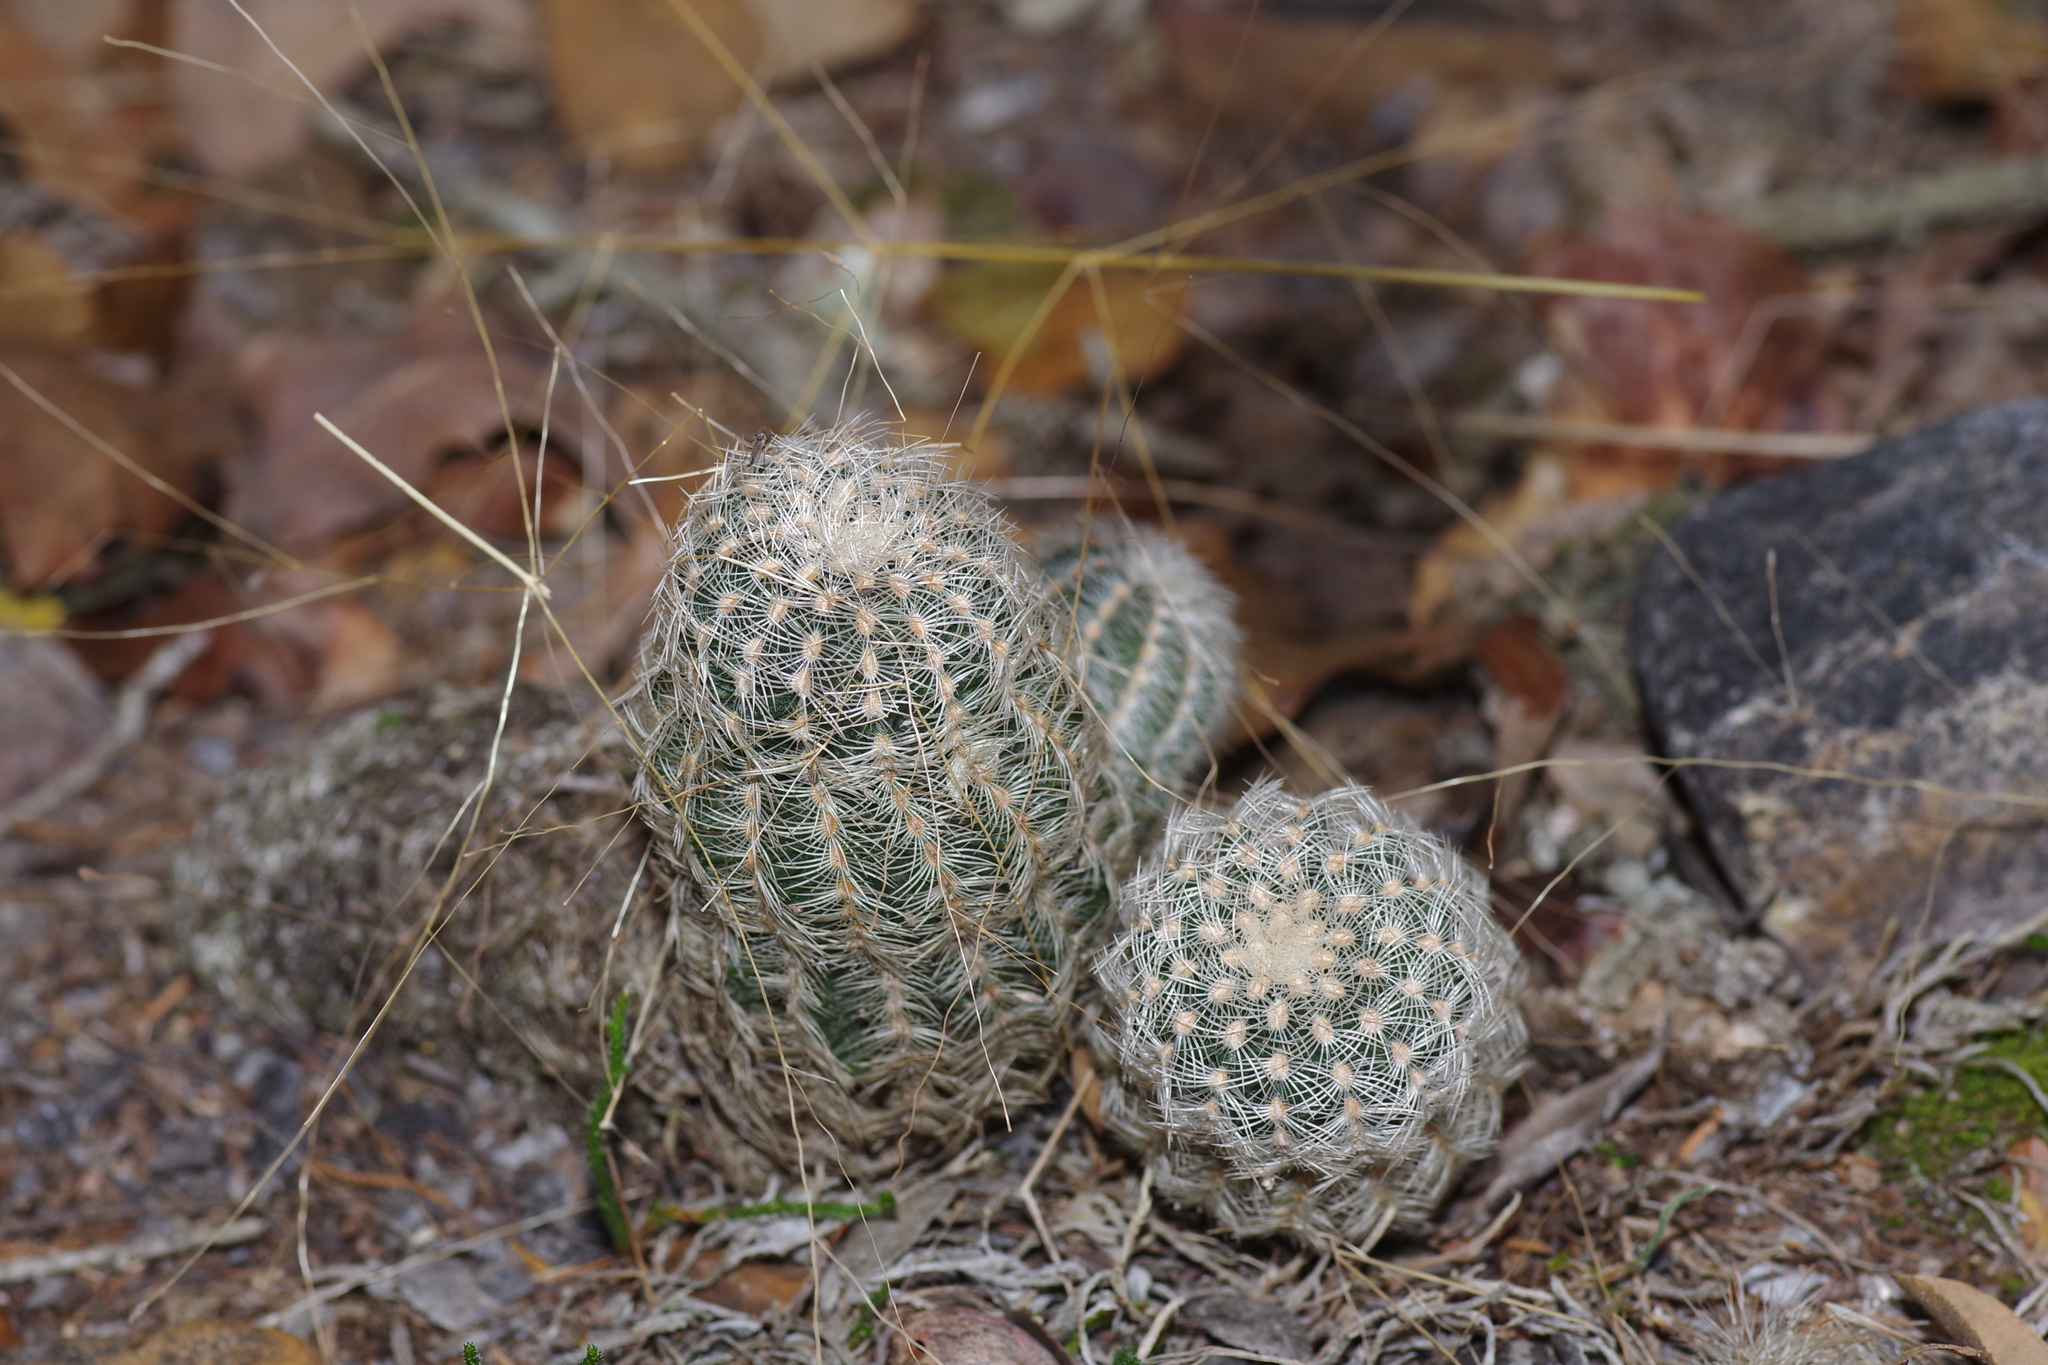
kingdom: Plantae
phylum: Tracheophyta
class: Magnoliopsida
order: Caryophyllales
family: Cactaceae
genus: Echinocereus
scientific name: Echinocereus reichenbachii
